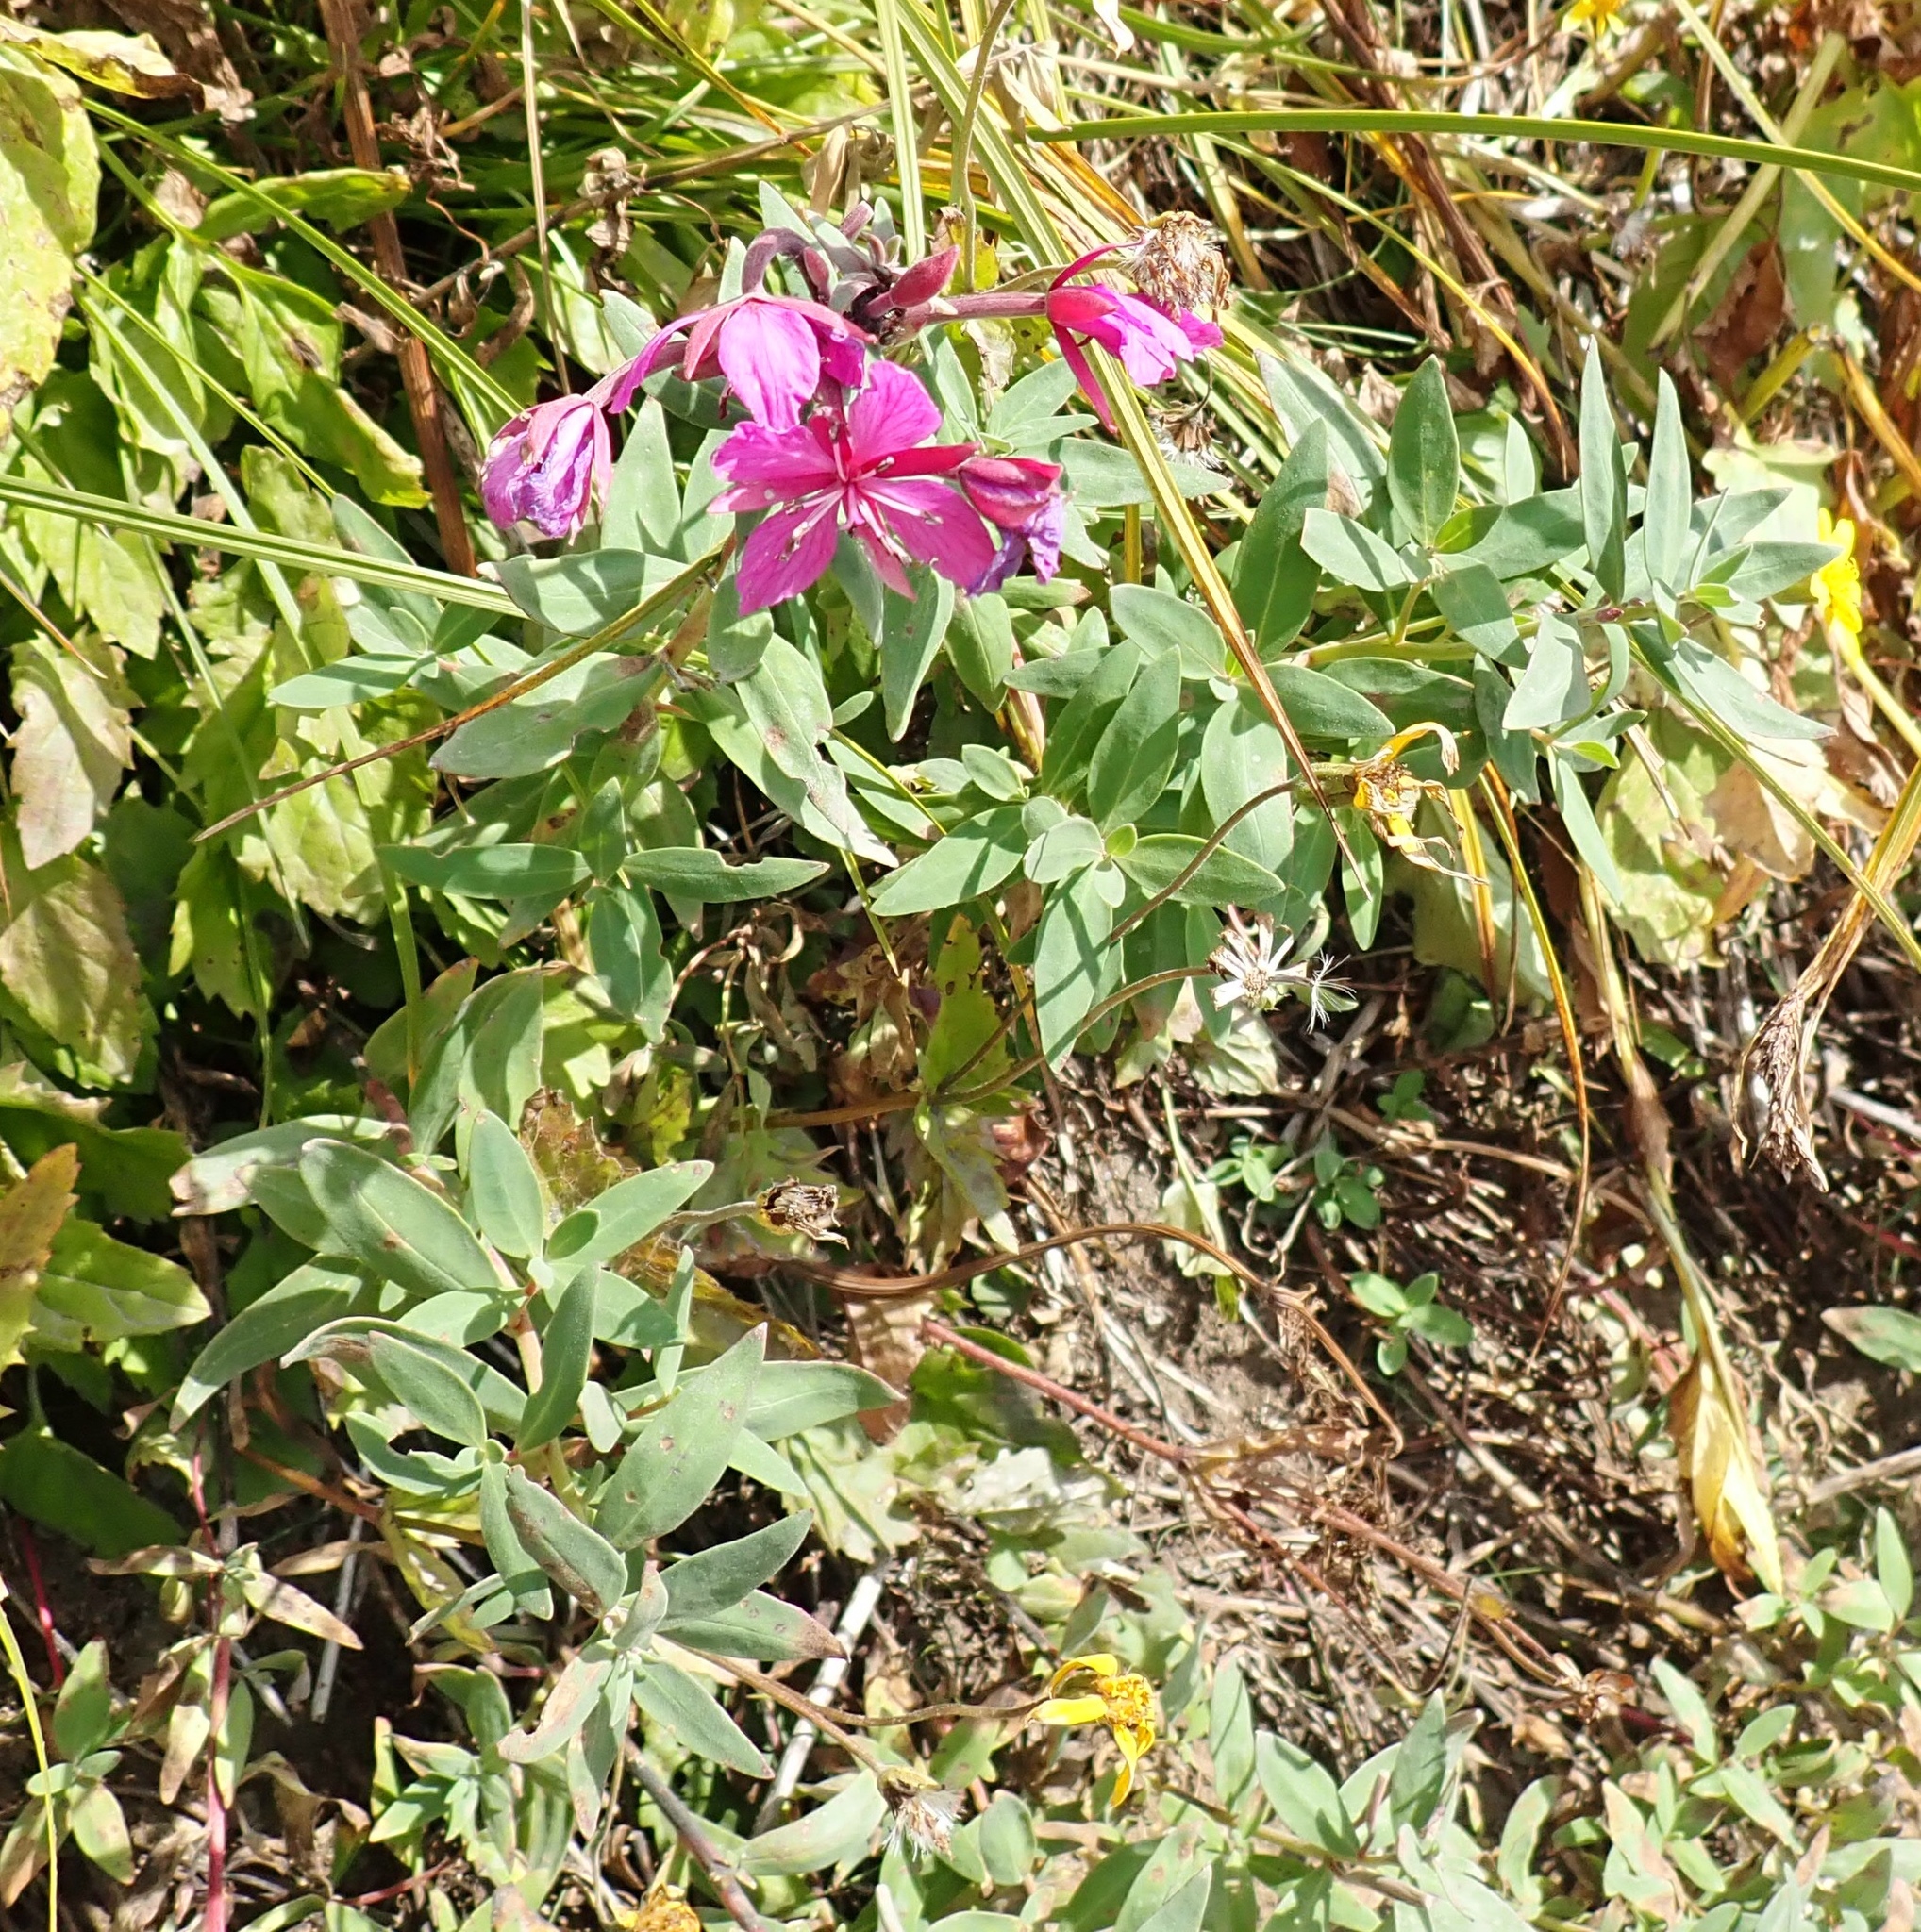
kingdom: Plantae
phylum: Tracheophyta
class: Magnoliopsida
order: Myrtales
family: Onagraceae
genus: Chamaenerion
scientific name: Chamaenerion latifolium
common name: Dwarf fireweed
